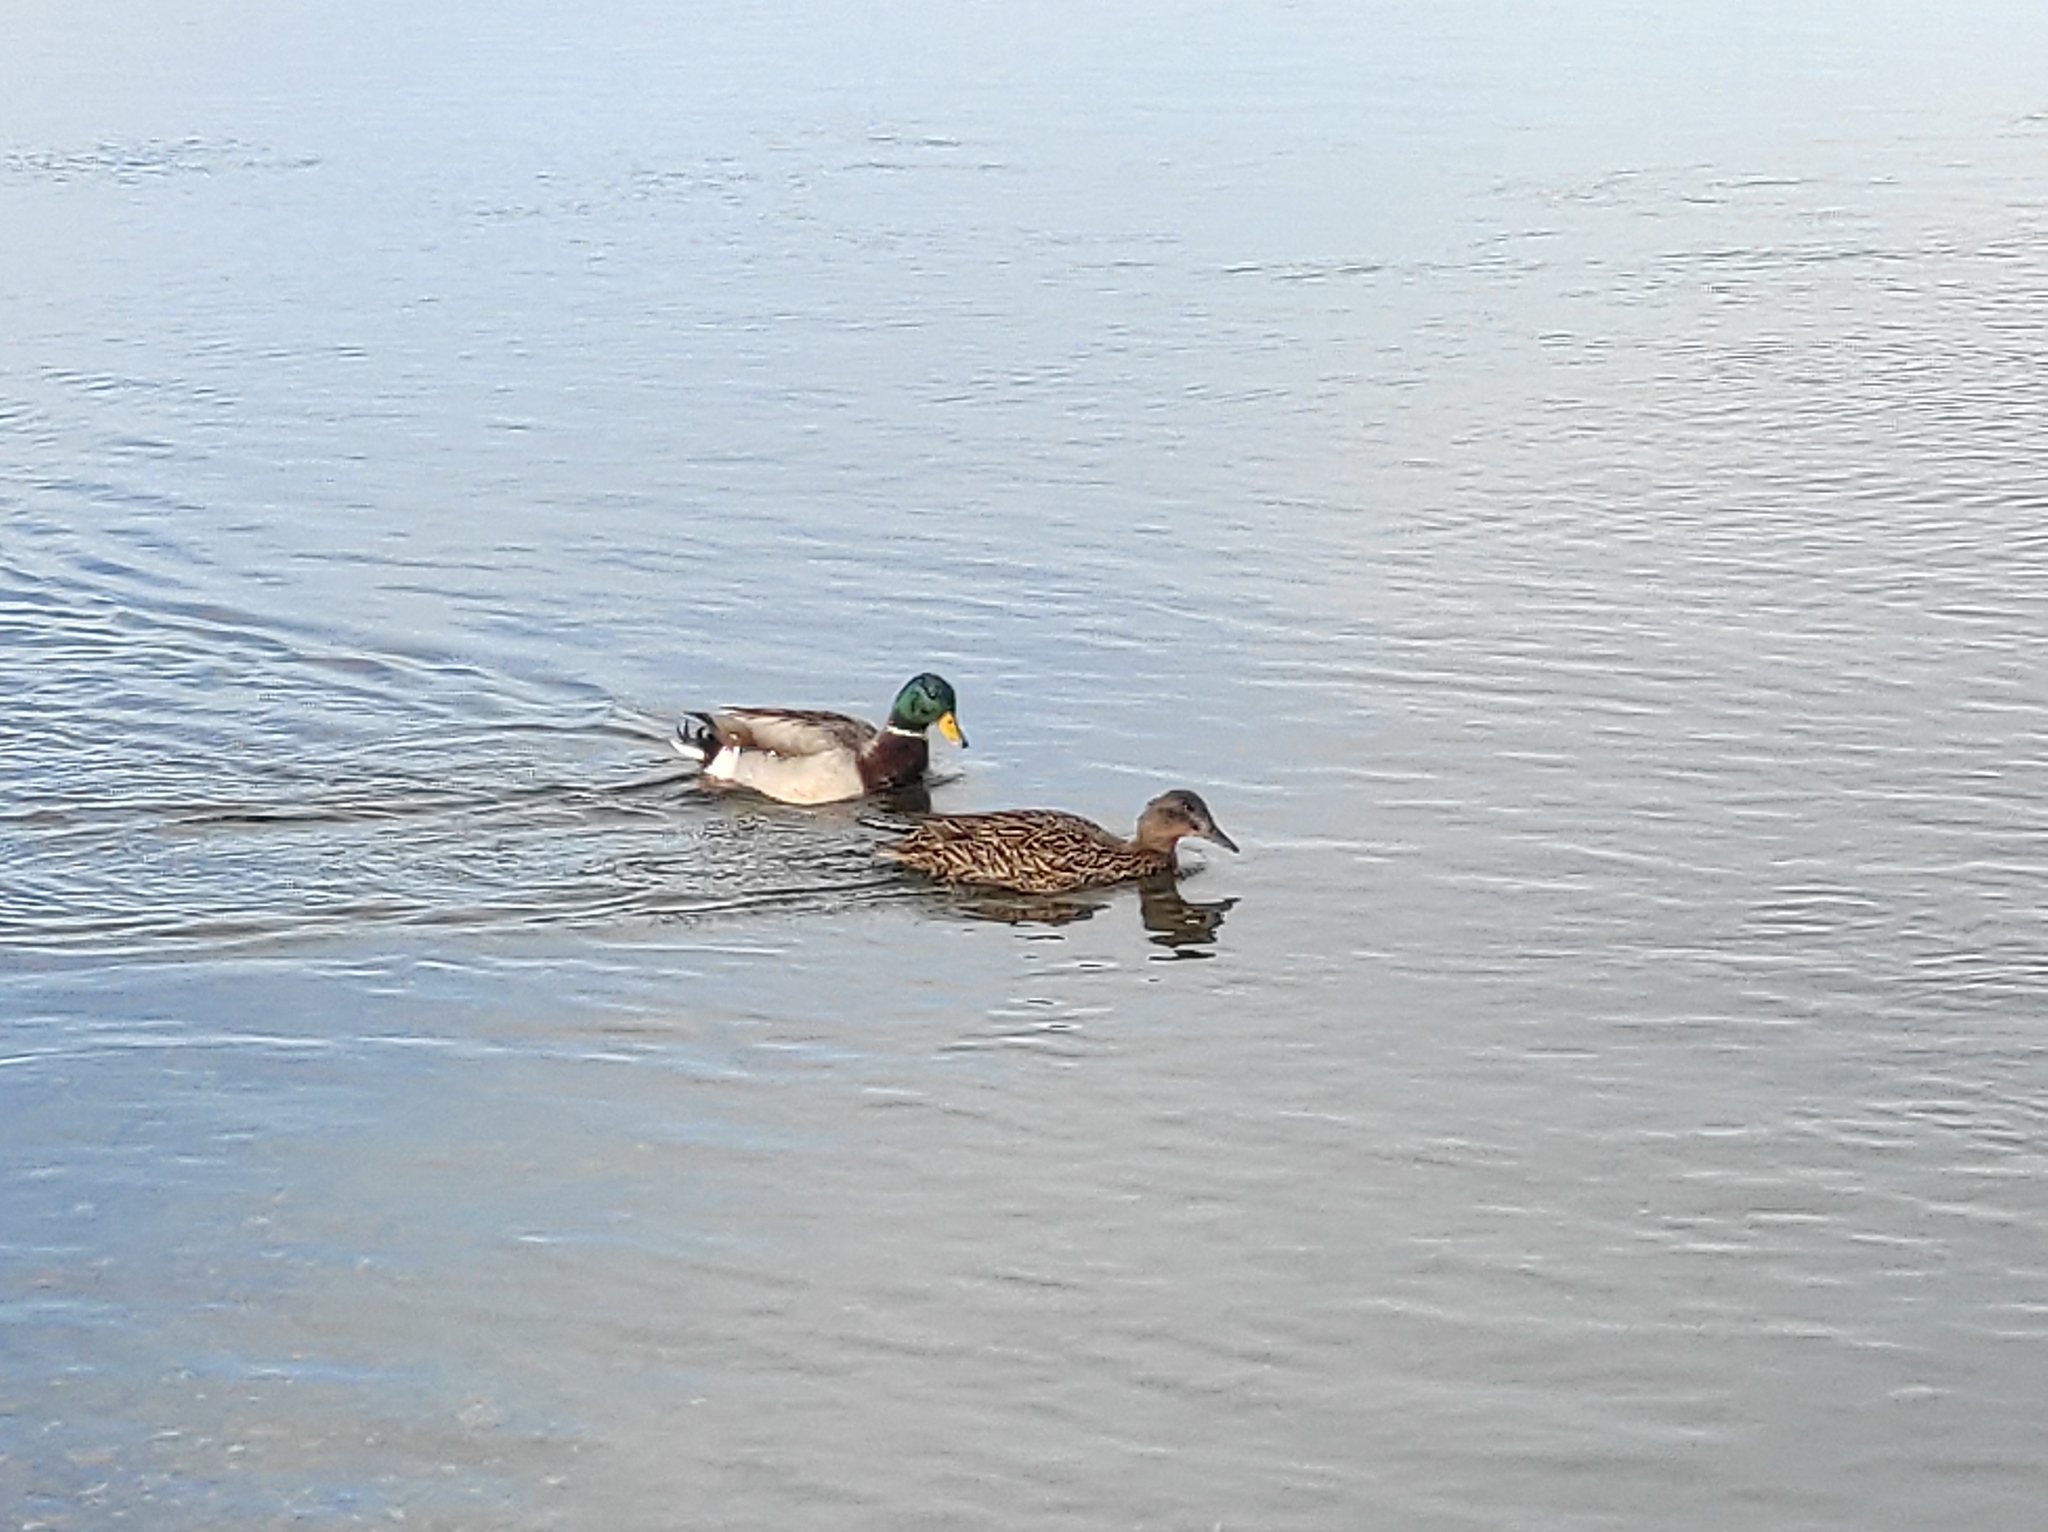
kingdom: Animalia
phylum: Chordata
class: Aves
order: Anseriformes
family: Anatidae
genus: Anas
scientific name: Anas platyrhynchos
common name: Mallard
